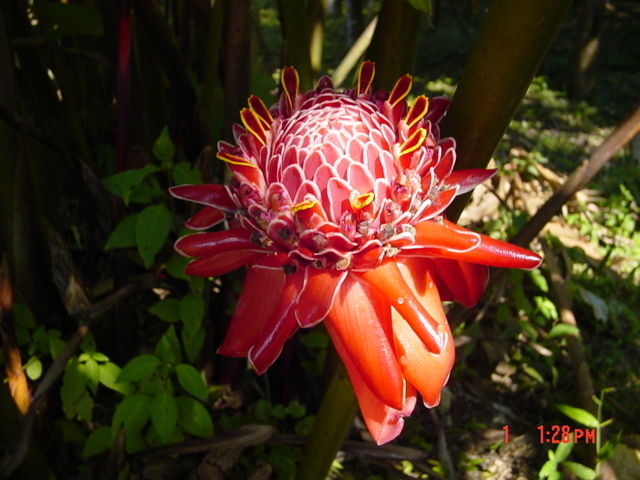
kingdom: Plantae
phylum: Tracheophyta
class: Liliopsida
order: Zingiberales
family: Zingiberaceae
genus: Etlingera
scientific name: Etlingera elatior
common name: Philippine waxflower
